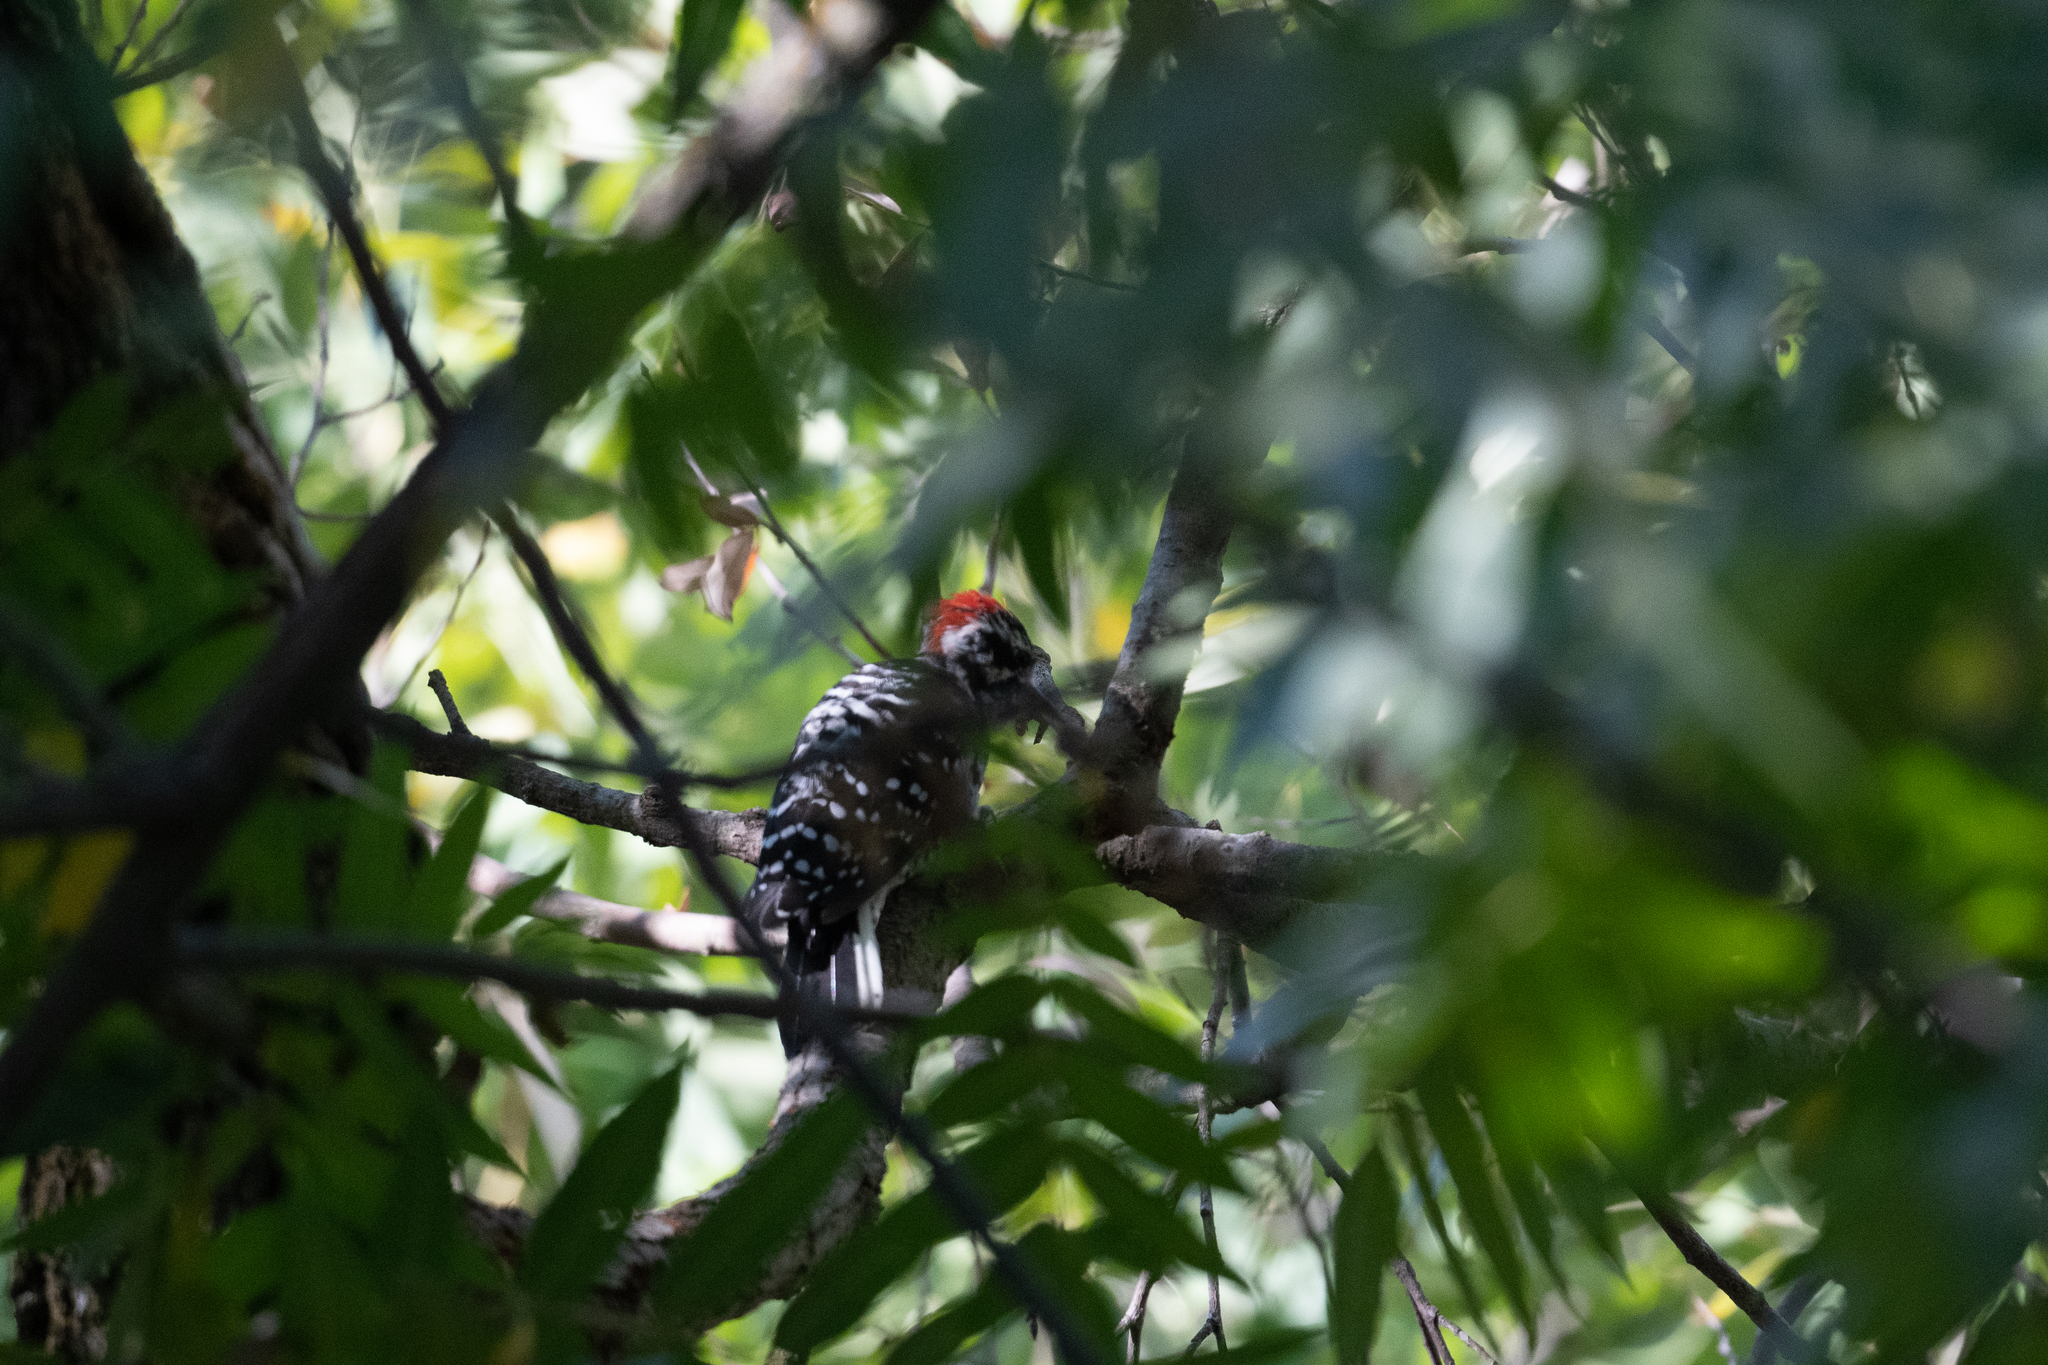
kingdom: Animalia
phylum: Chordata
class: Aves
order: Piciformes
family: Picidae
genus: Dryobates
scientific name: Dryobates nuttallii
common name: Nuttall's woodpecker
